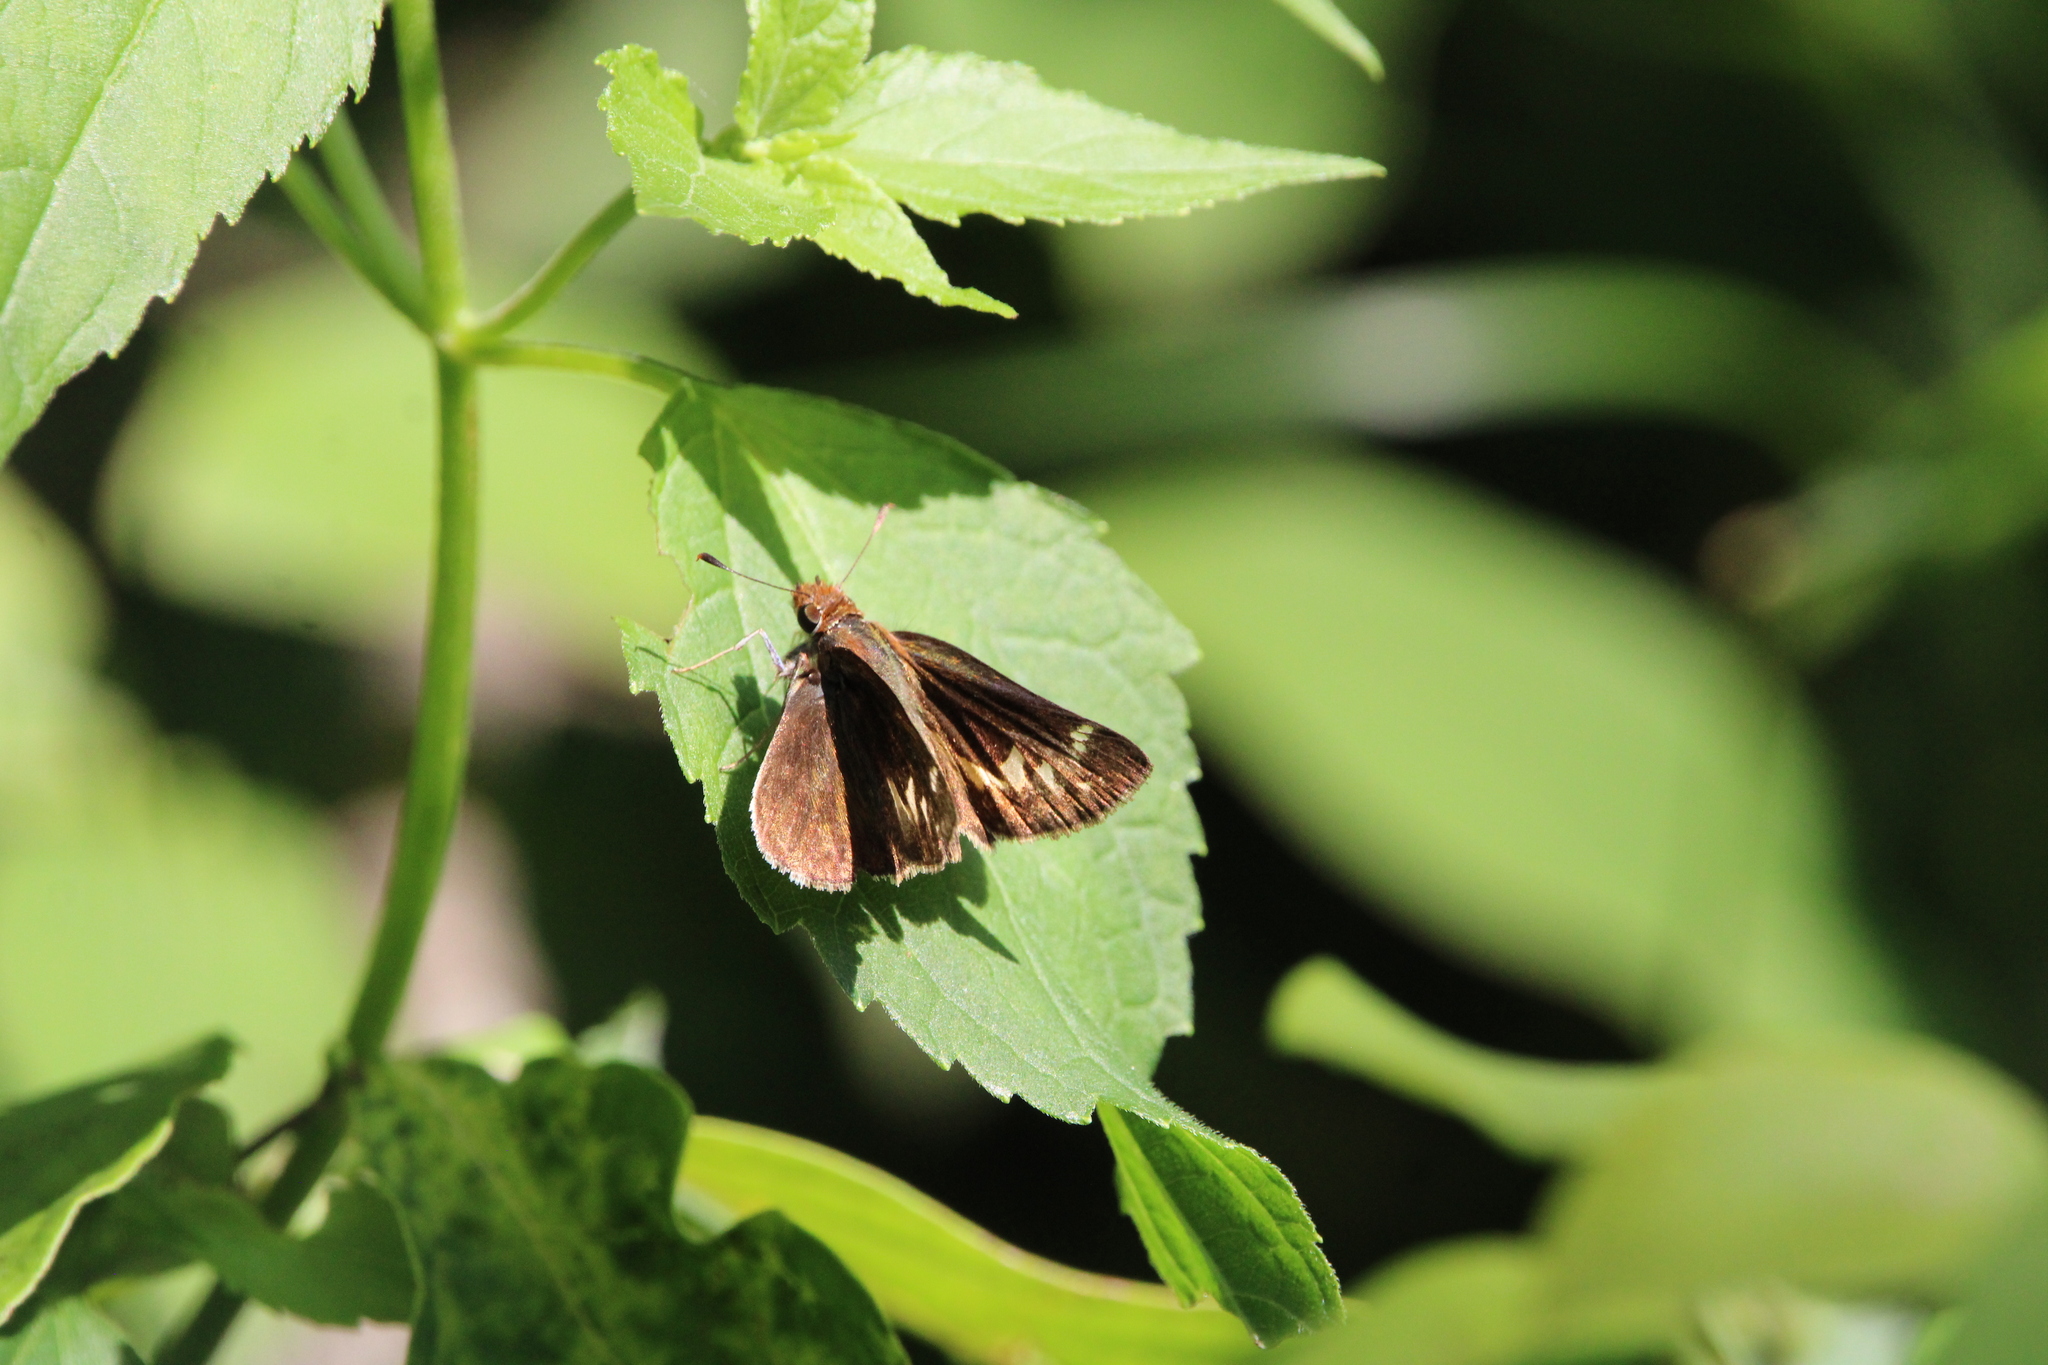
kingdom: Animalia
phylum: Arthropoda
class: Insecta
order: Lepidoptera
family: Hesperiidae
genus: Lon
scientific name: Lon zabulon
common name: Zabulon skipper
